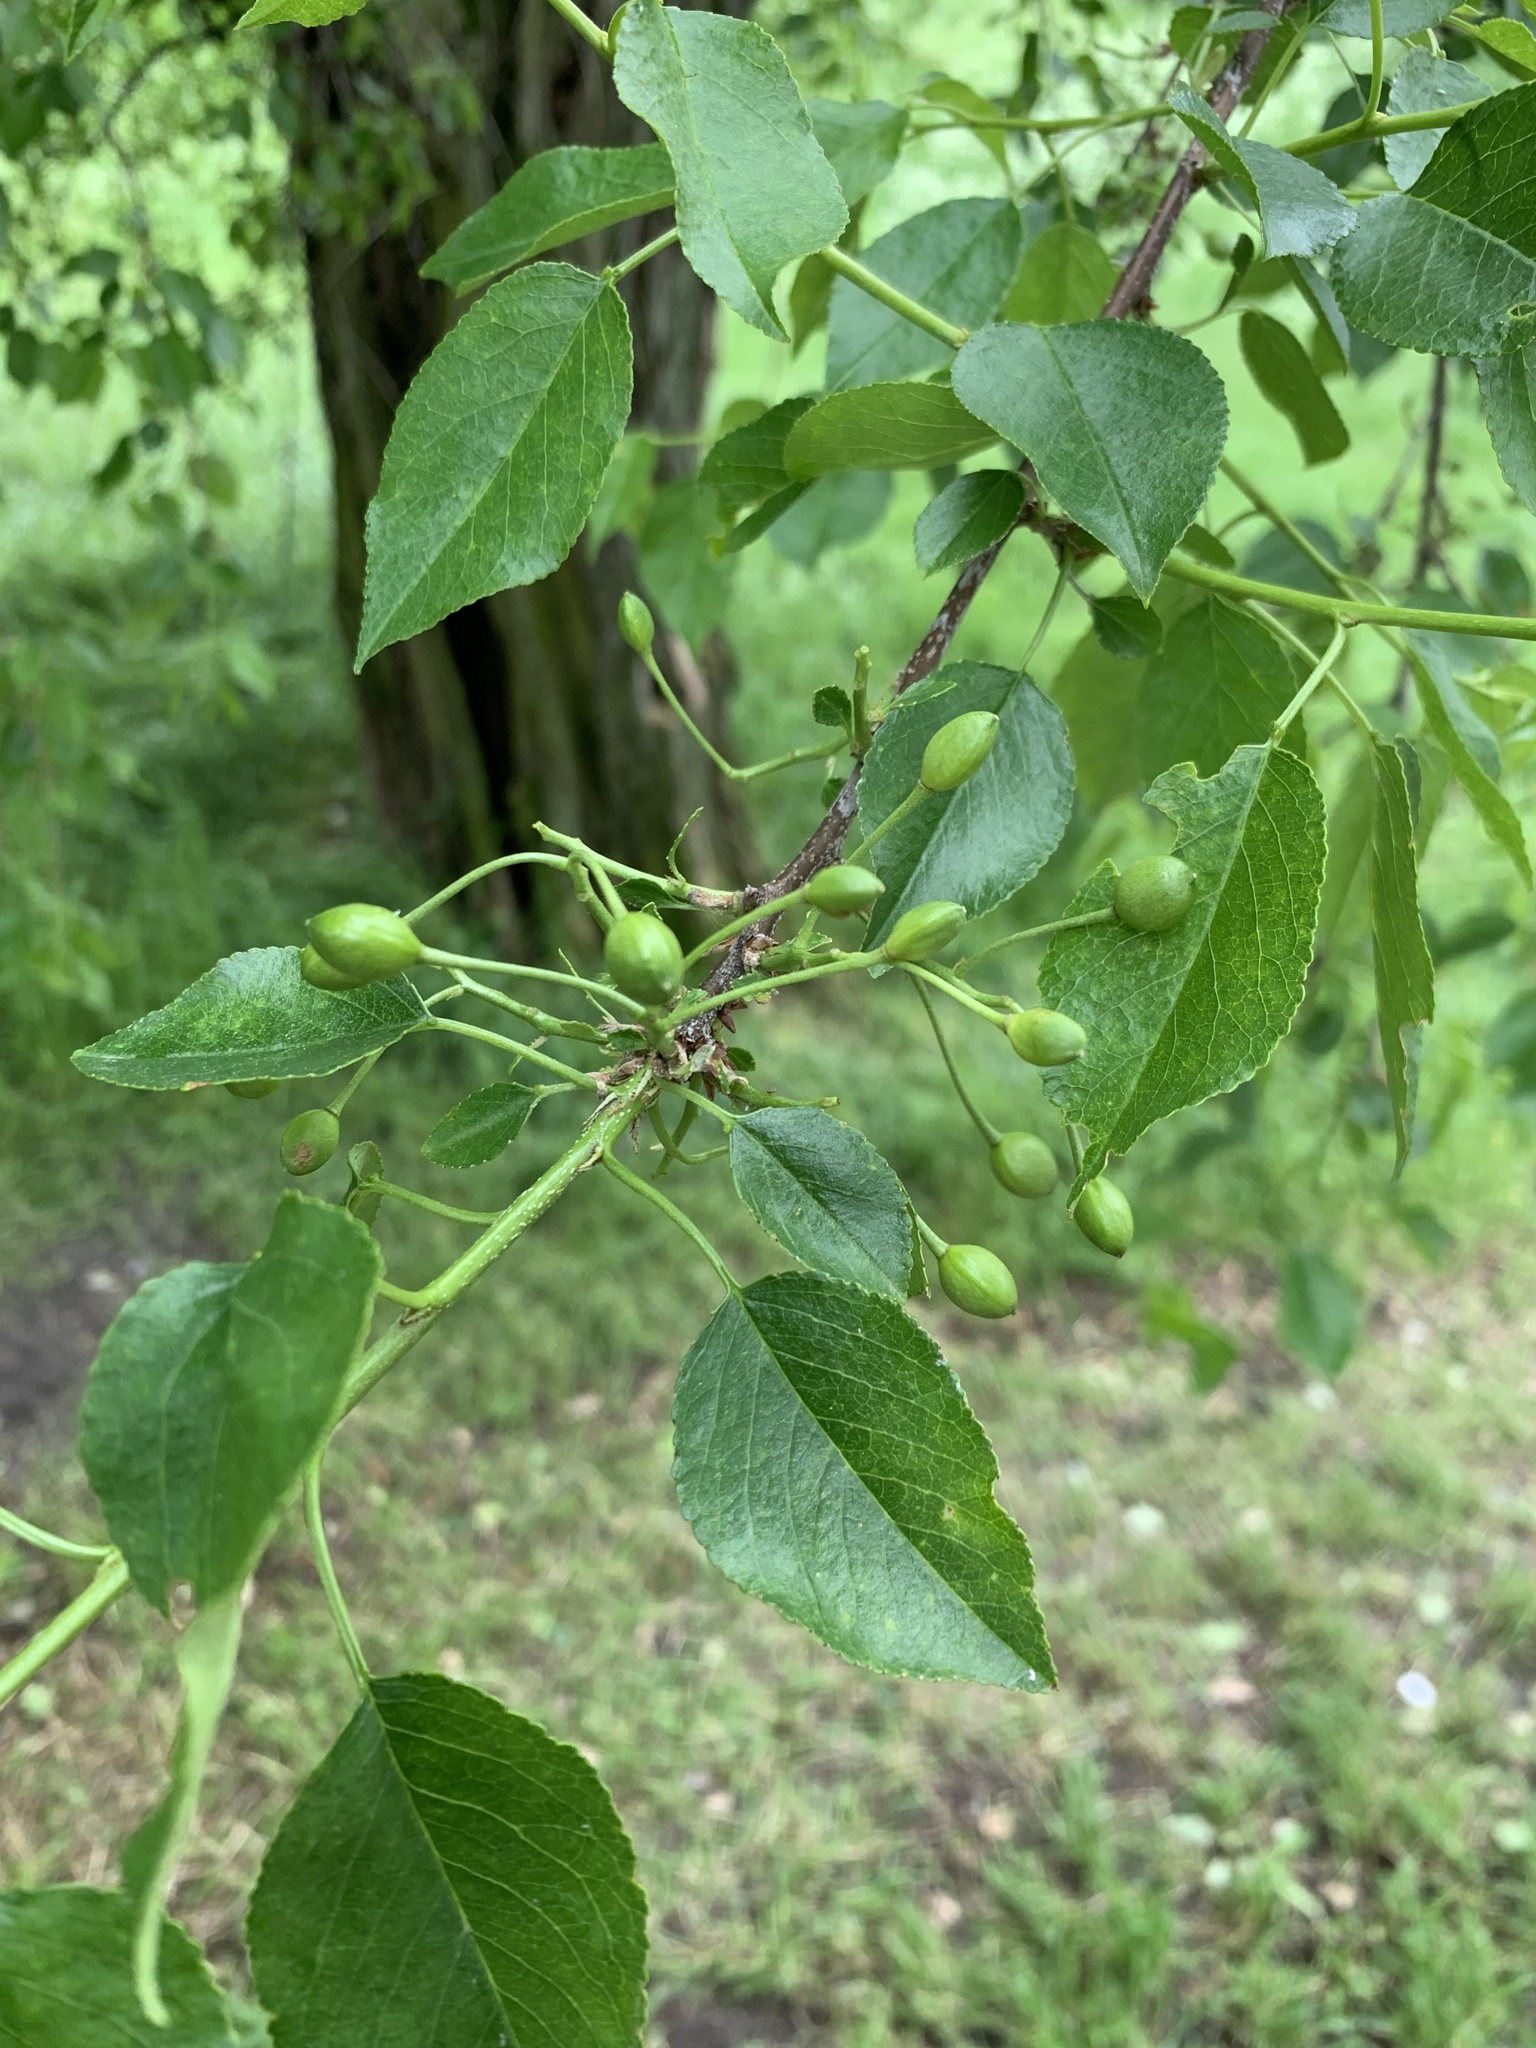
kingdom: Plantae
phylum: Tracheophyta
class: Magnoliopsida
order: Rosales
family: Rosaceae
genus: Prunus
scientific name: Prunus mahaleb
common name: Mahaleb cherry
